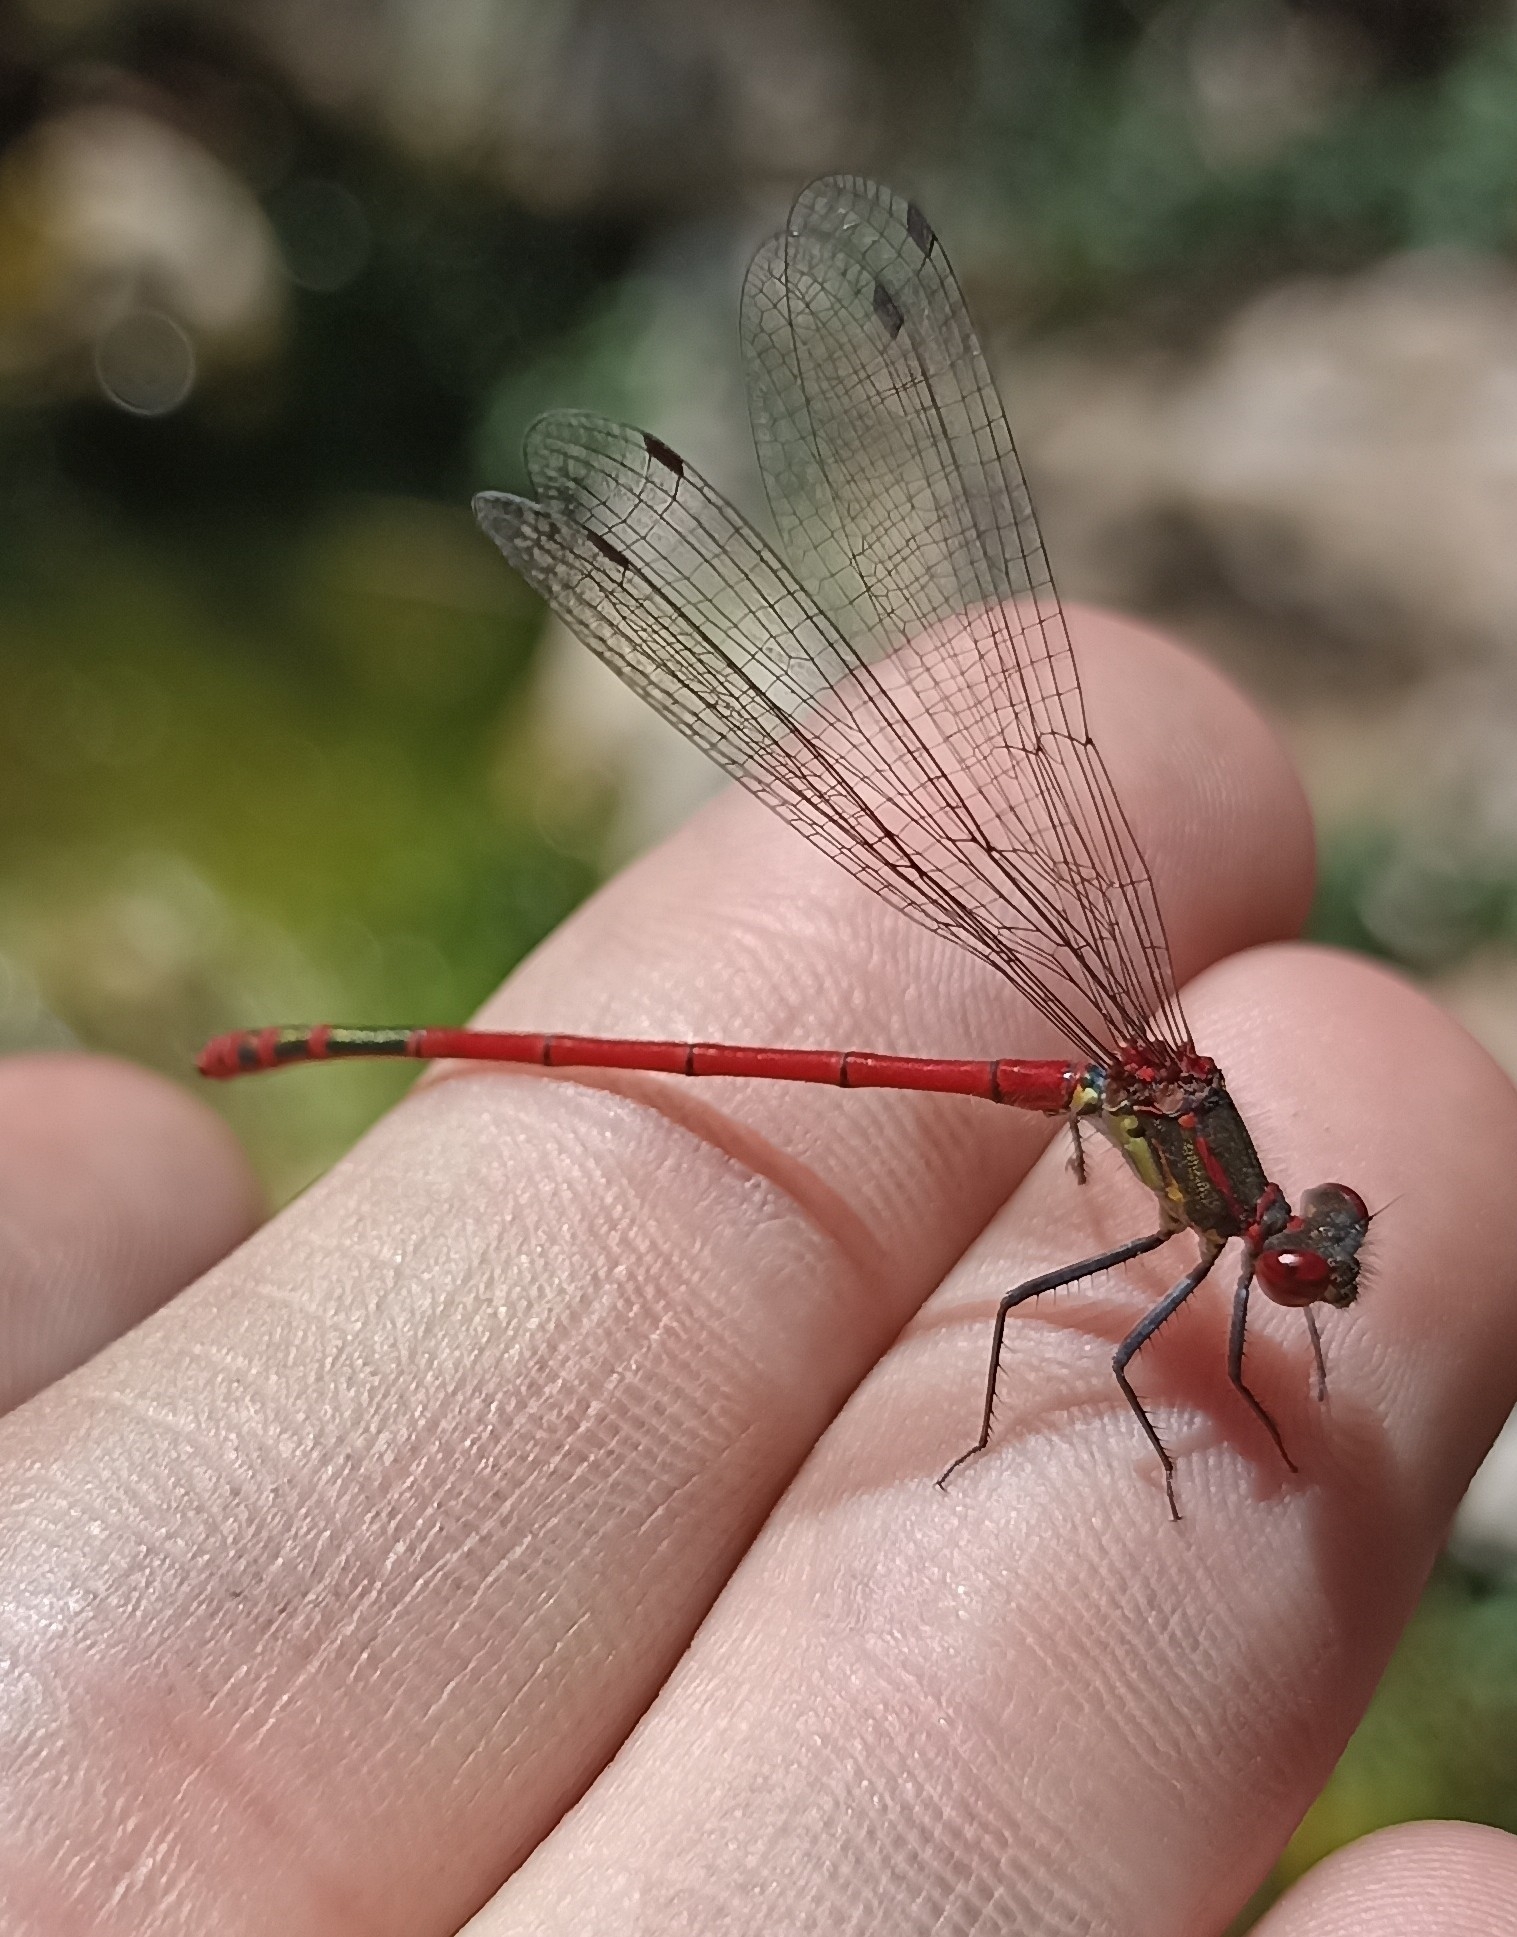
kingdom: Animalia
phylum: Arthropoda
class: Insecta
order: Odonata
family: Coenagrionidae
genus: Pyrrhosoma
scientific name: Pyrrhosoma nymphula
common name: Large red damsel
